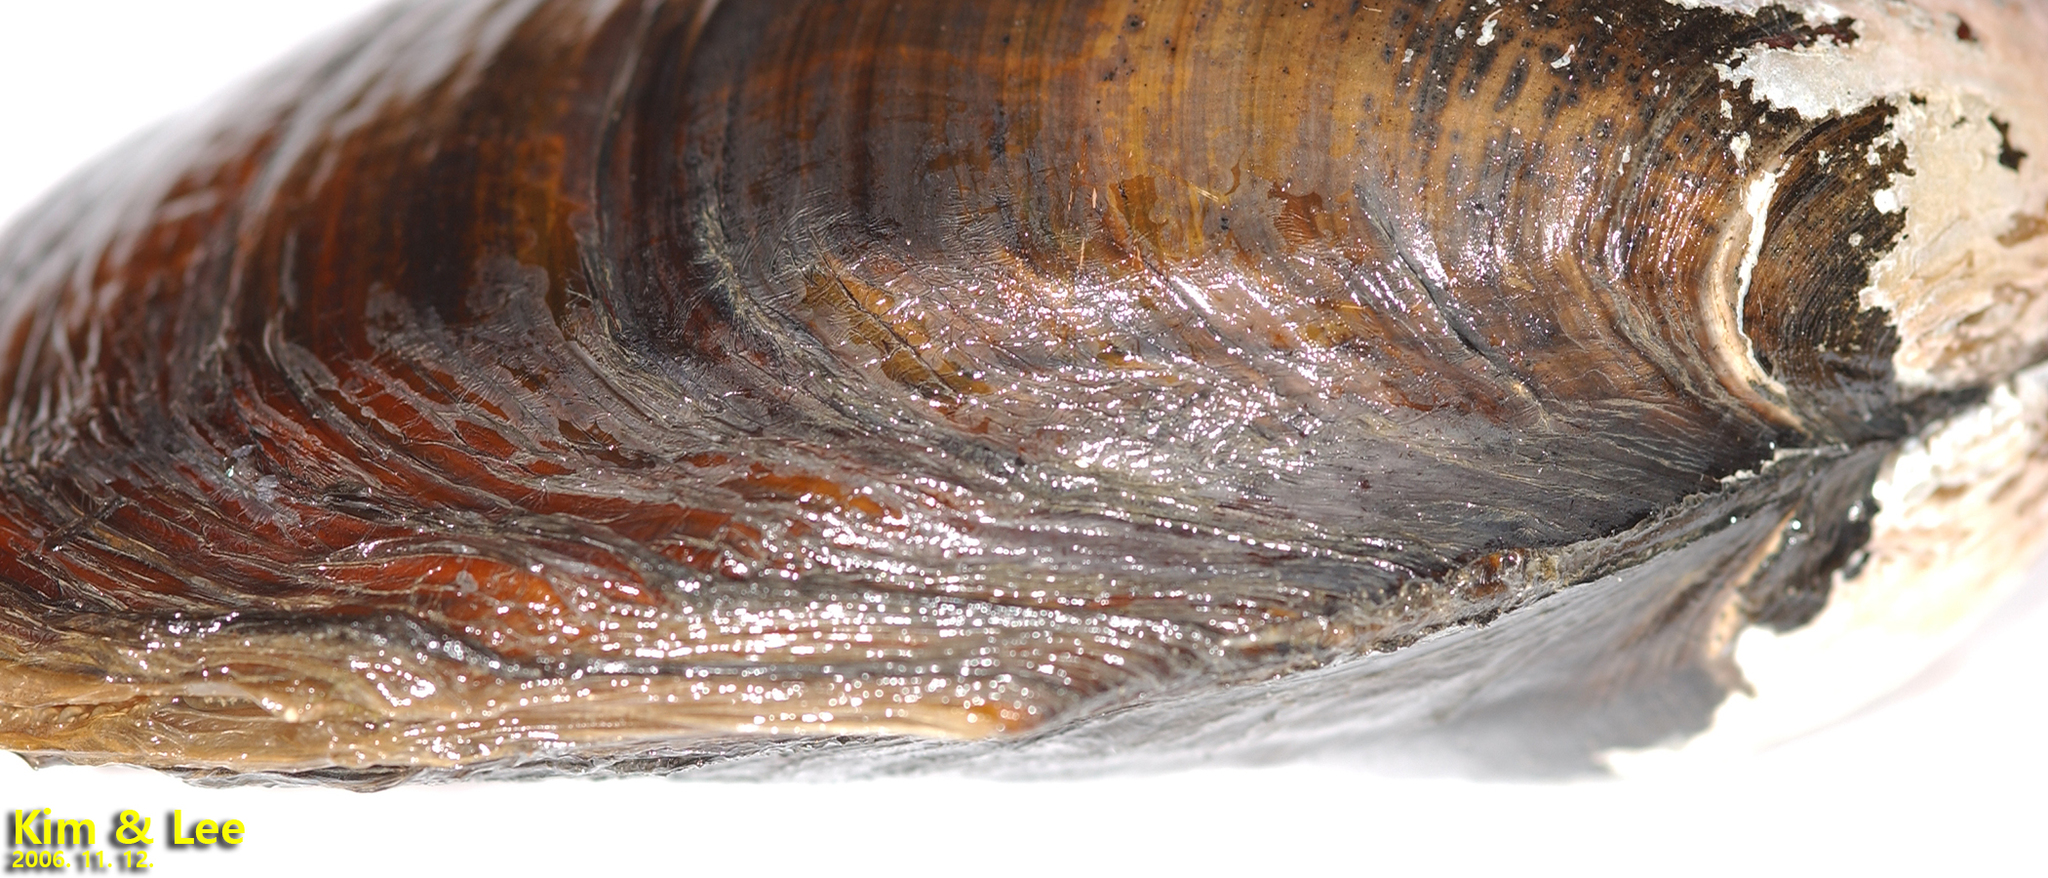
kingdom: Animalia
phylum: Mollusca
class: Bivalvia
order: Unionida
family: Unionidae
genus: Sinanodonta
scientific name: Sinanodonta lauta
